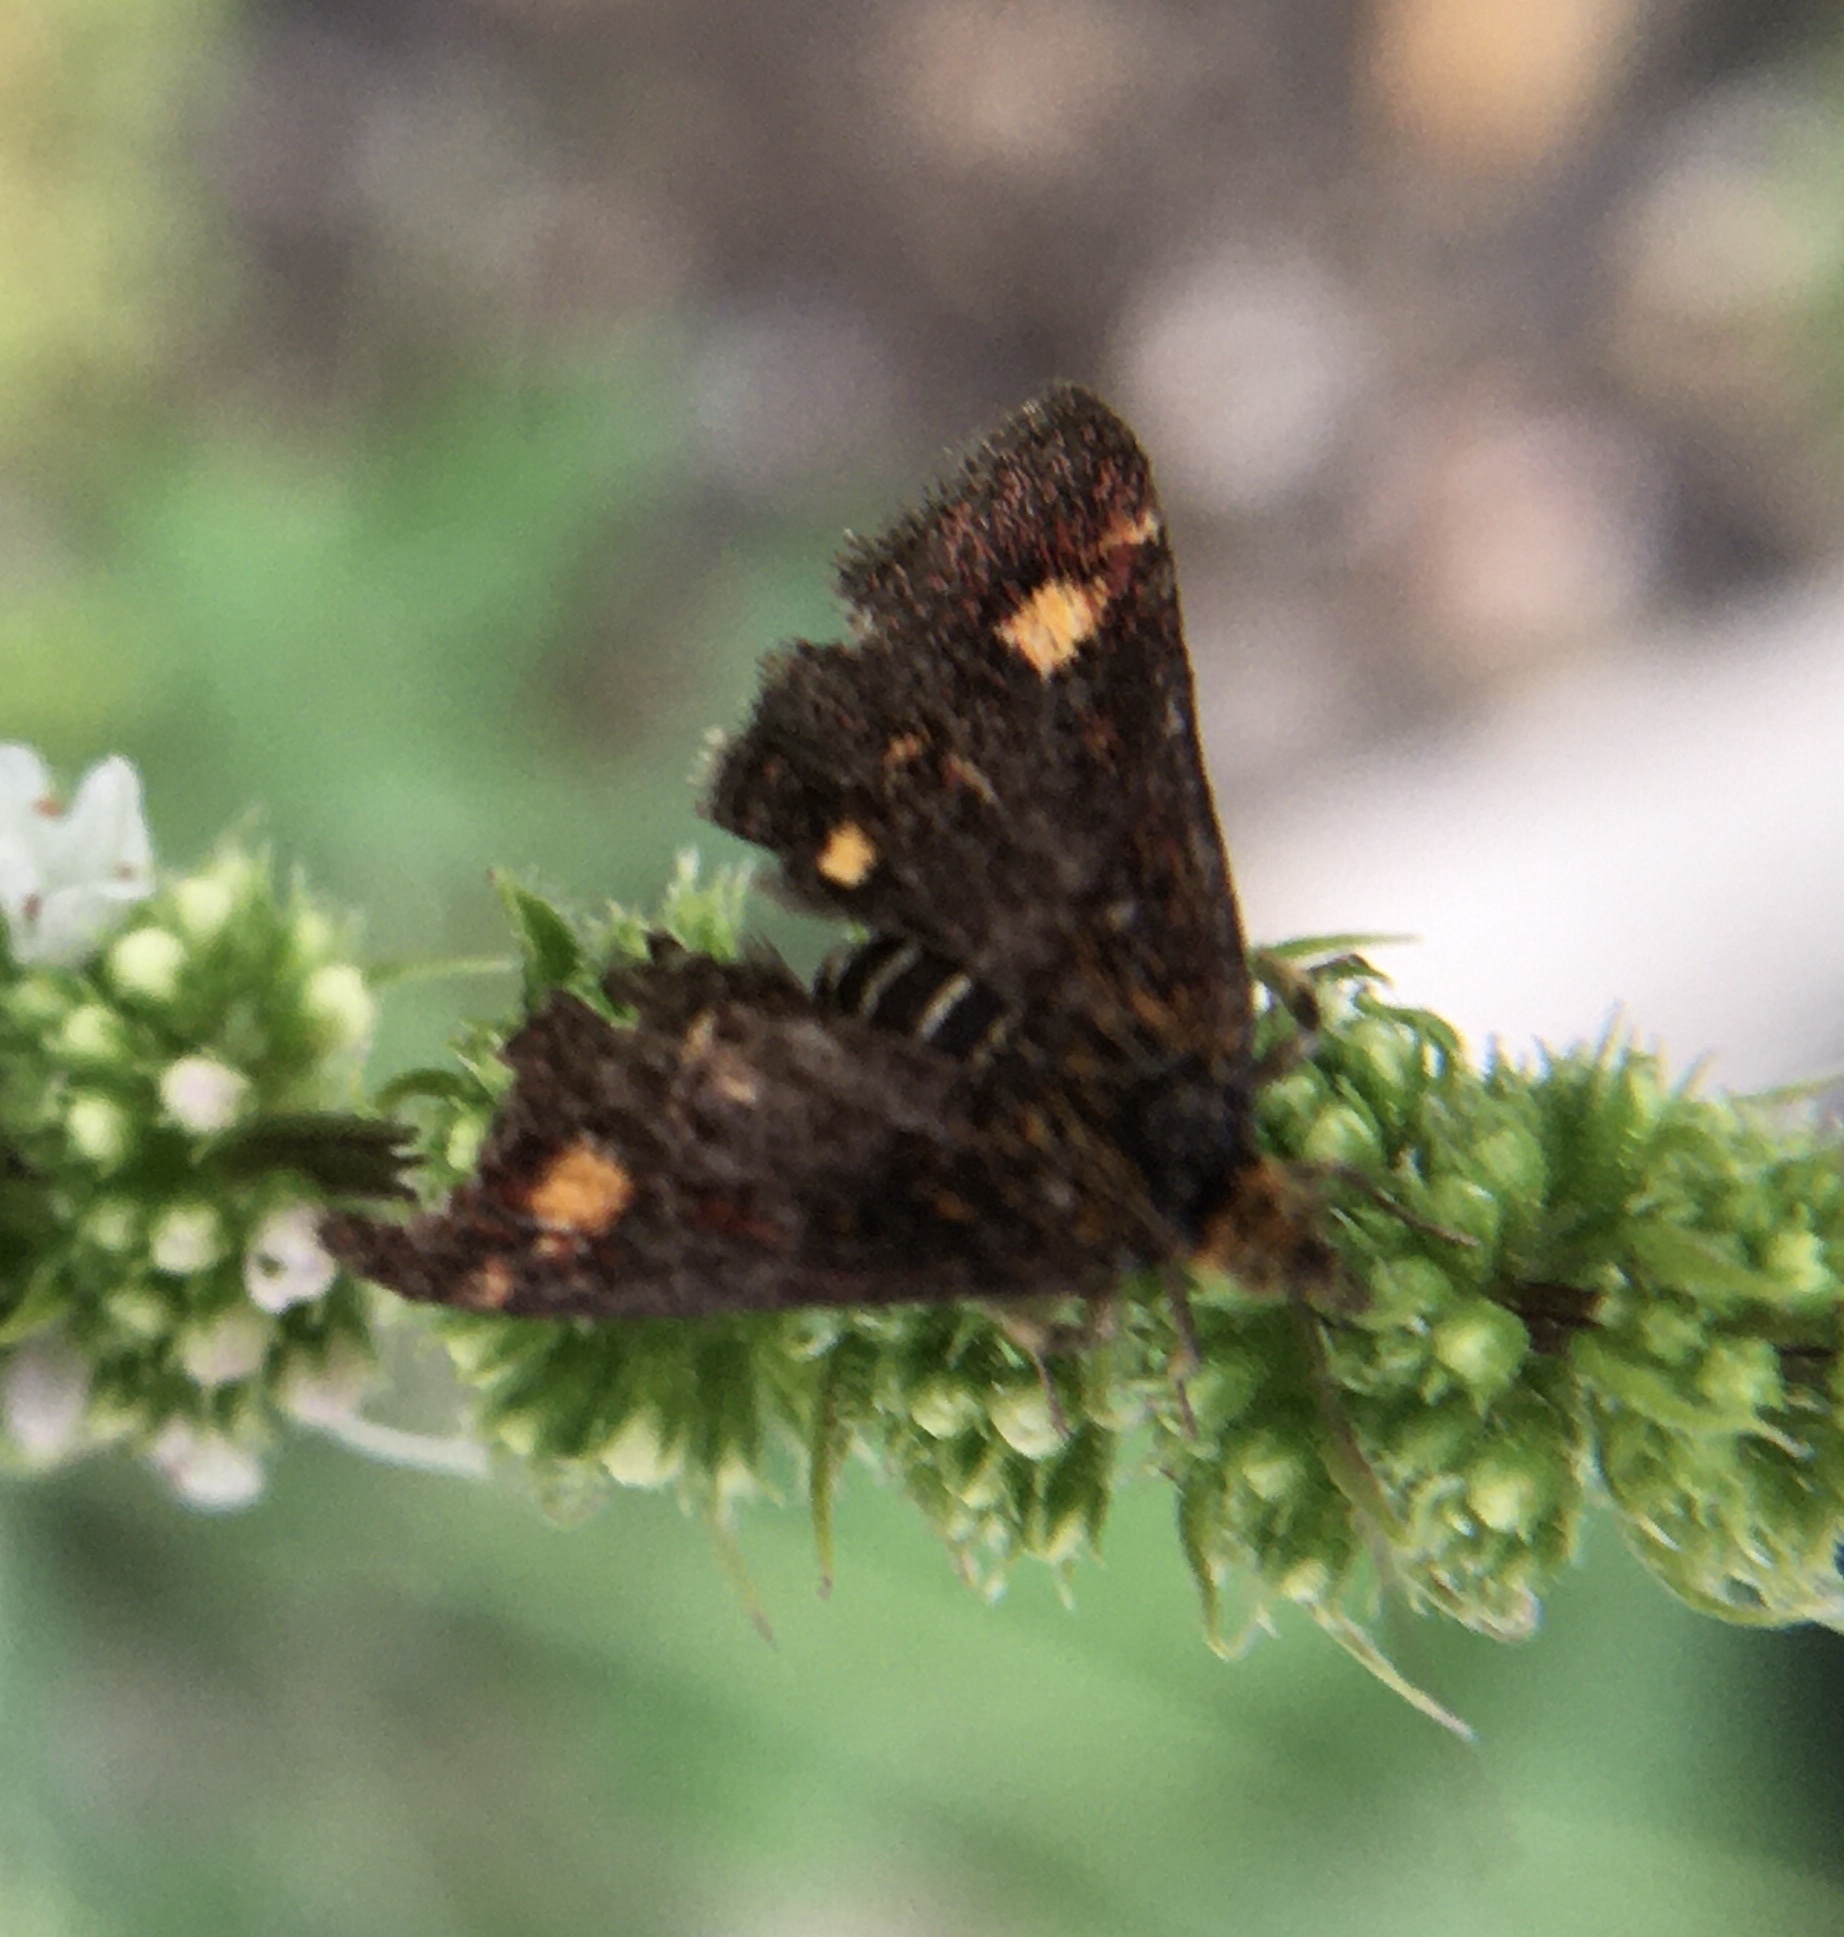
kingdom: Animalia
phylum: Arthropoda
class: Insecta
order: Lepidoptera
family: Crambidae
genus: Pyrausta
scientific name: Pyrausta aurata
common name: Small purple & gold
